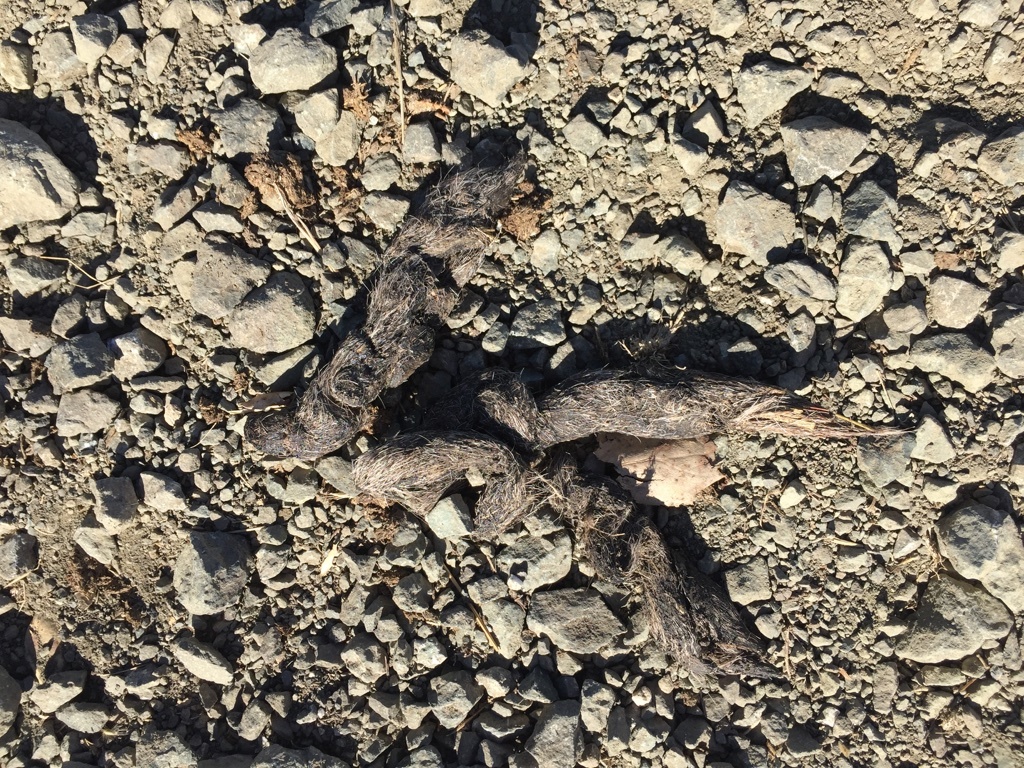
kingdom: Animalia
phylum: Chordata
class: Mammalia
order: Carnivora
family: Canidae
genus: Canis
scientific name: Canis latrans
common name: Coyote
